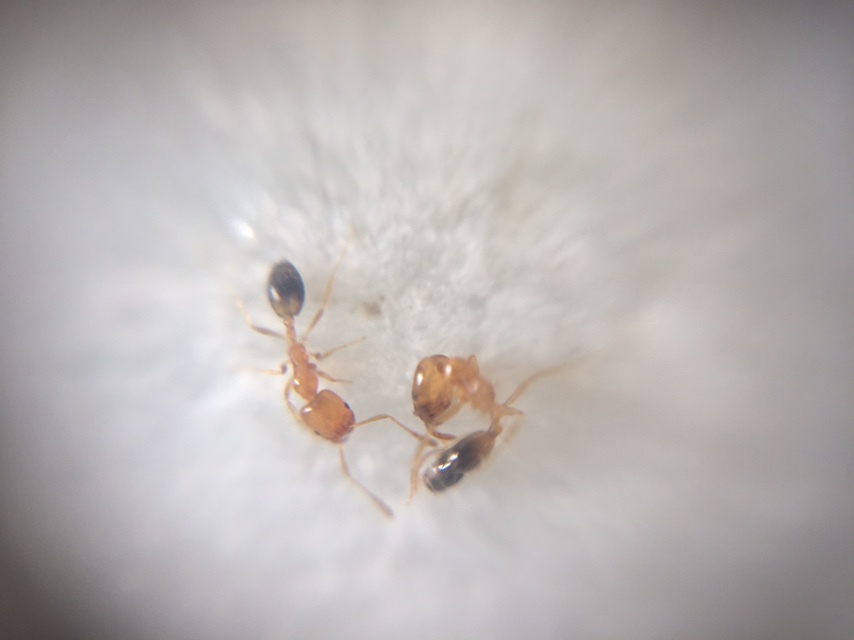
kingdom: Animalia
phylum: Arthropoda
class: Insecta
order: Hymenoptera
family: Formicidae
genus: Monomorium
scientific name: Monomorium destructor
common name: Destructive trailing ant
